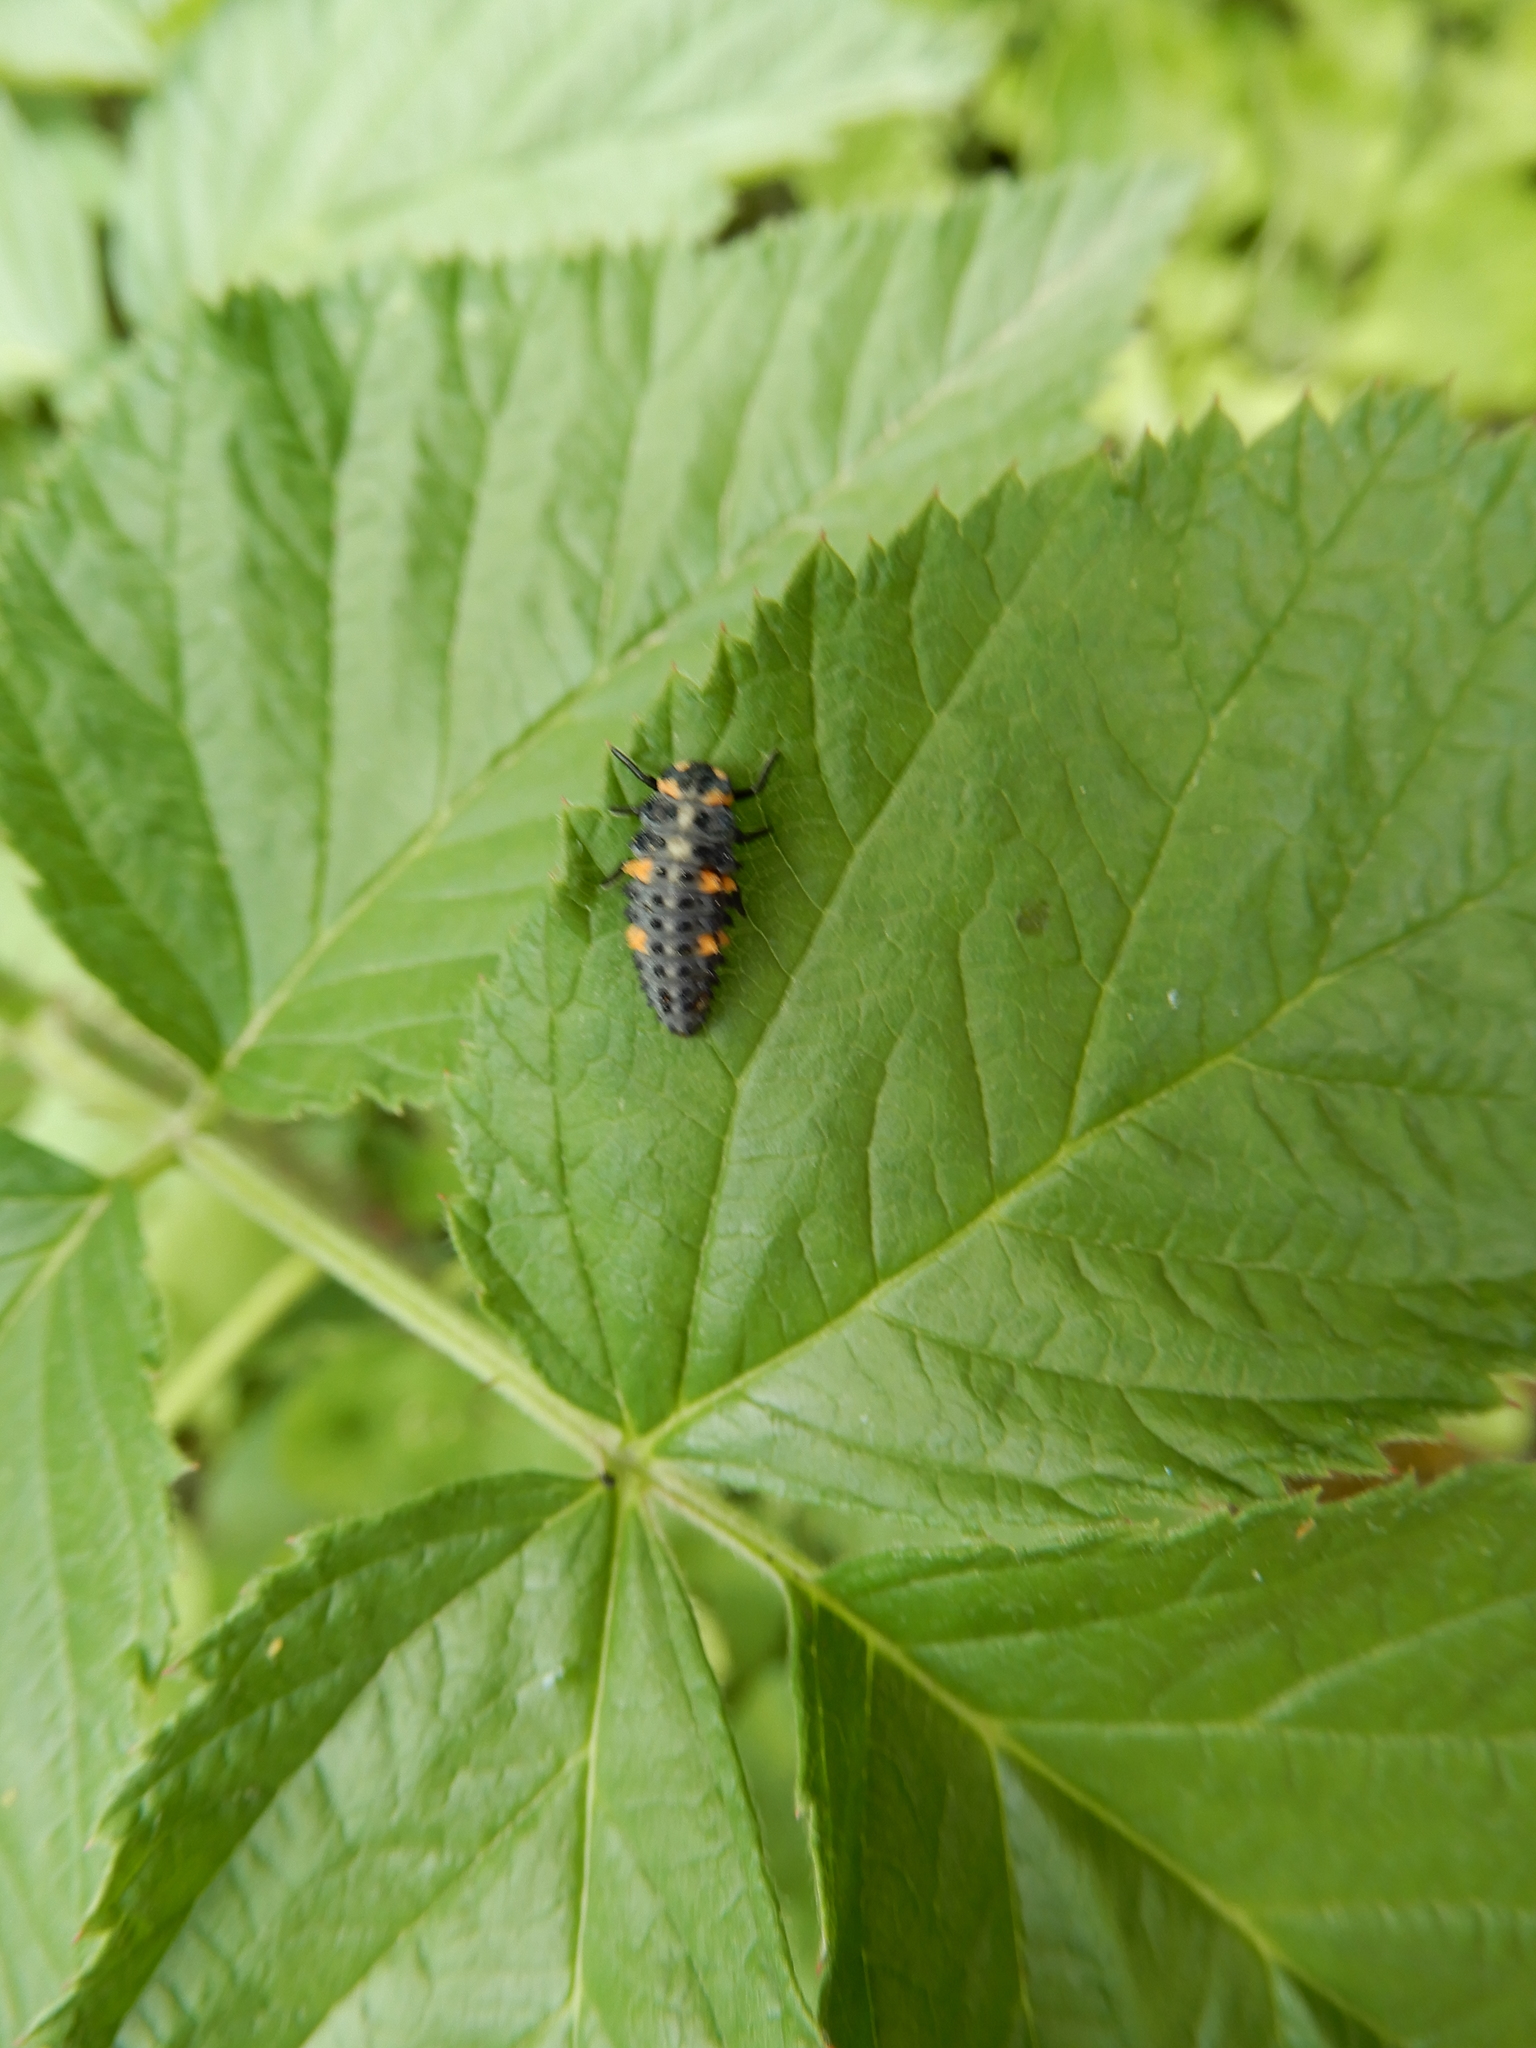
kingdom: Animalia
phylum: Arthropoda
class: Insecta
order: Coleoptera
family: Coccinellidae
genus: Coccinella
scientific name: Coccinella septempunctata
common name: Sevenspotted lady beetle
